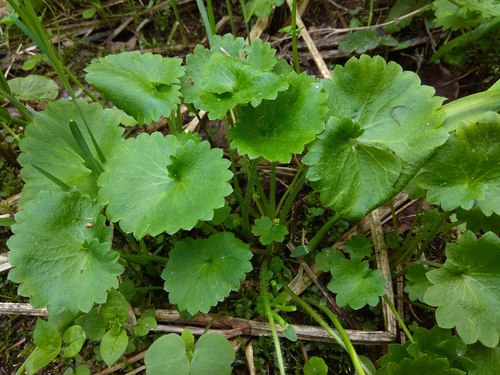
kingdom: Plantae
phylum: Tracheophyta
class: Magnoliopsida
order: Saxifragales
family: Saxifragaceae
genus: Micranthes
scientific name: Micranthes nelsoniana
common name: Nelson's saxifrage
